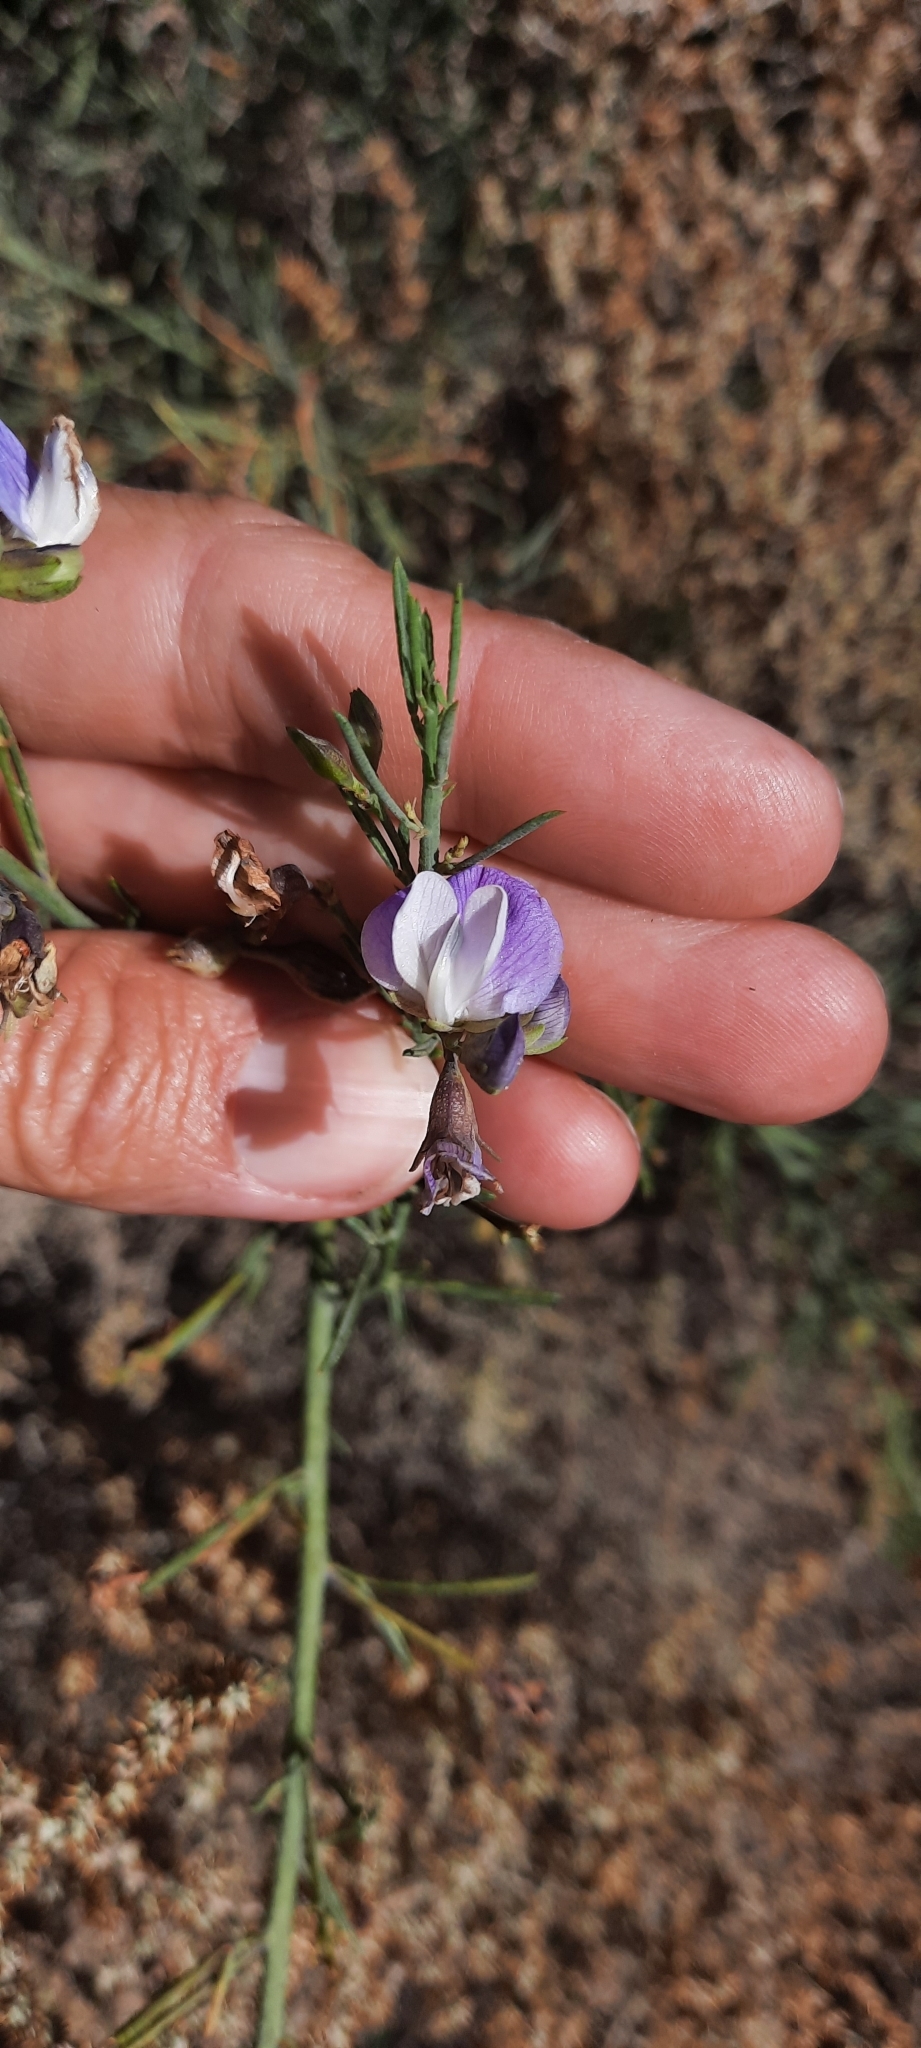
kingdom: Plantae
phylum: Tracheophyta
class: Magnoliopsida
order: Fabales
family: Fabaceae
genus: Psoralea
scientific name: Psoralea verrucosa
